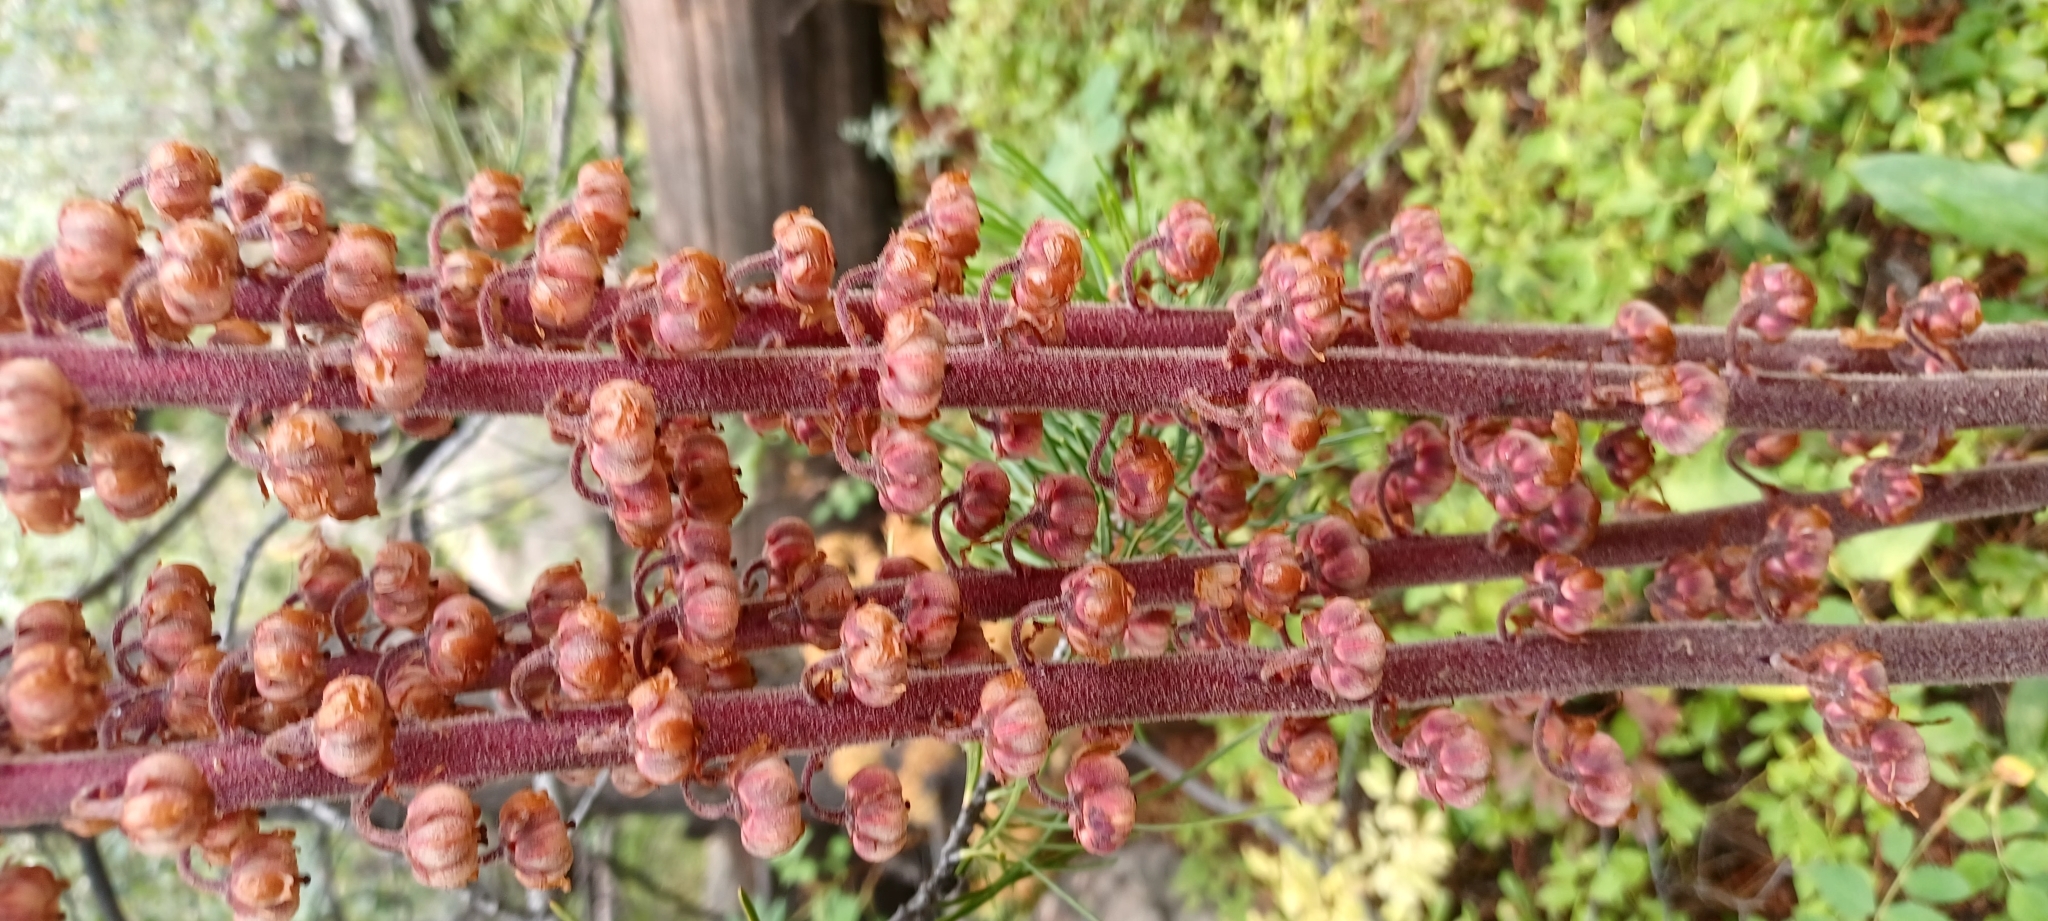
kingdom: Plantae
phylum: Tracheophyta
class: Magnoliopsida
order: Ericales
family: Ericaceae
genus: Pterospora
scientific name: Pterospora andromedea
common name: Giant bird's-nest
